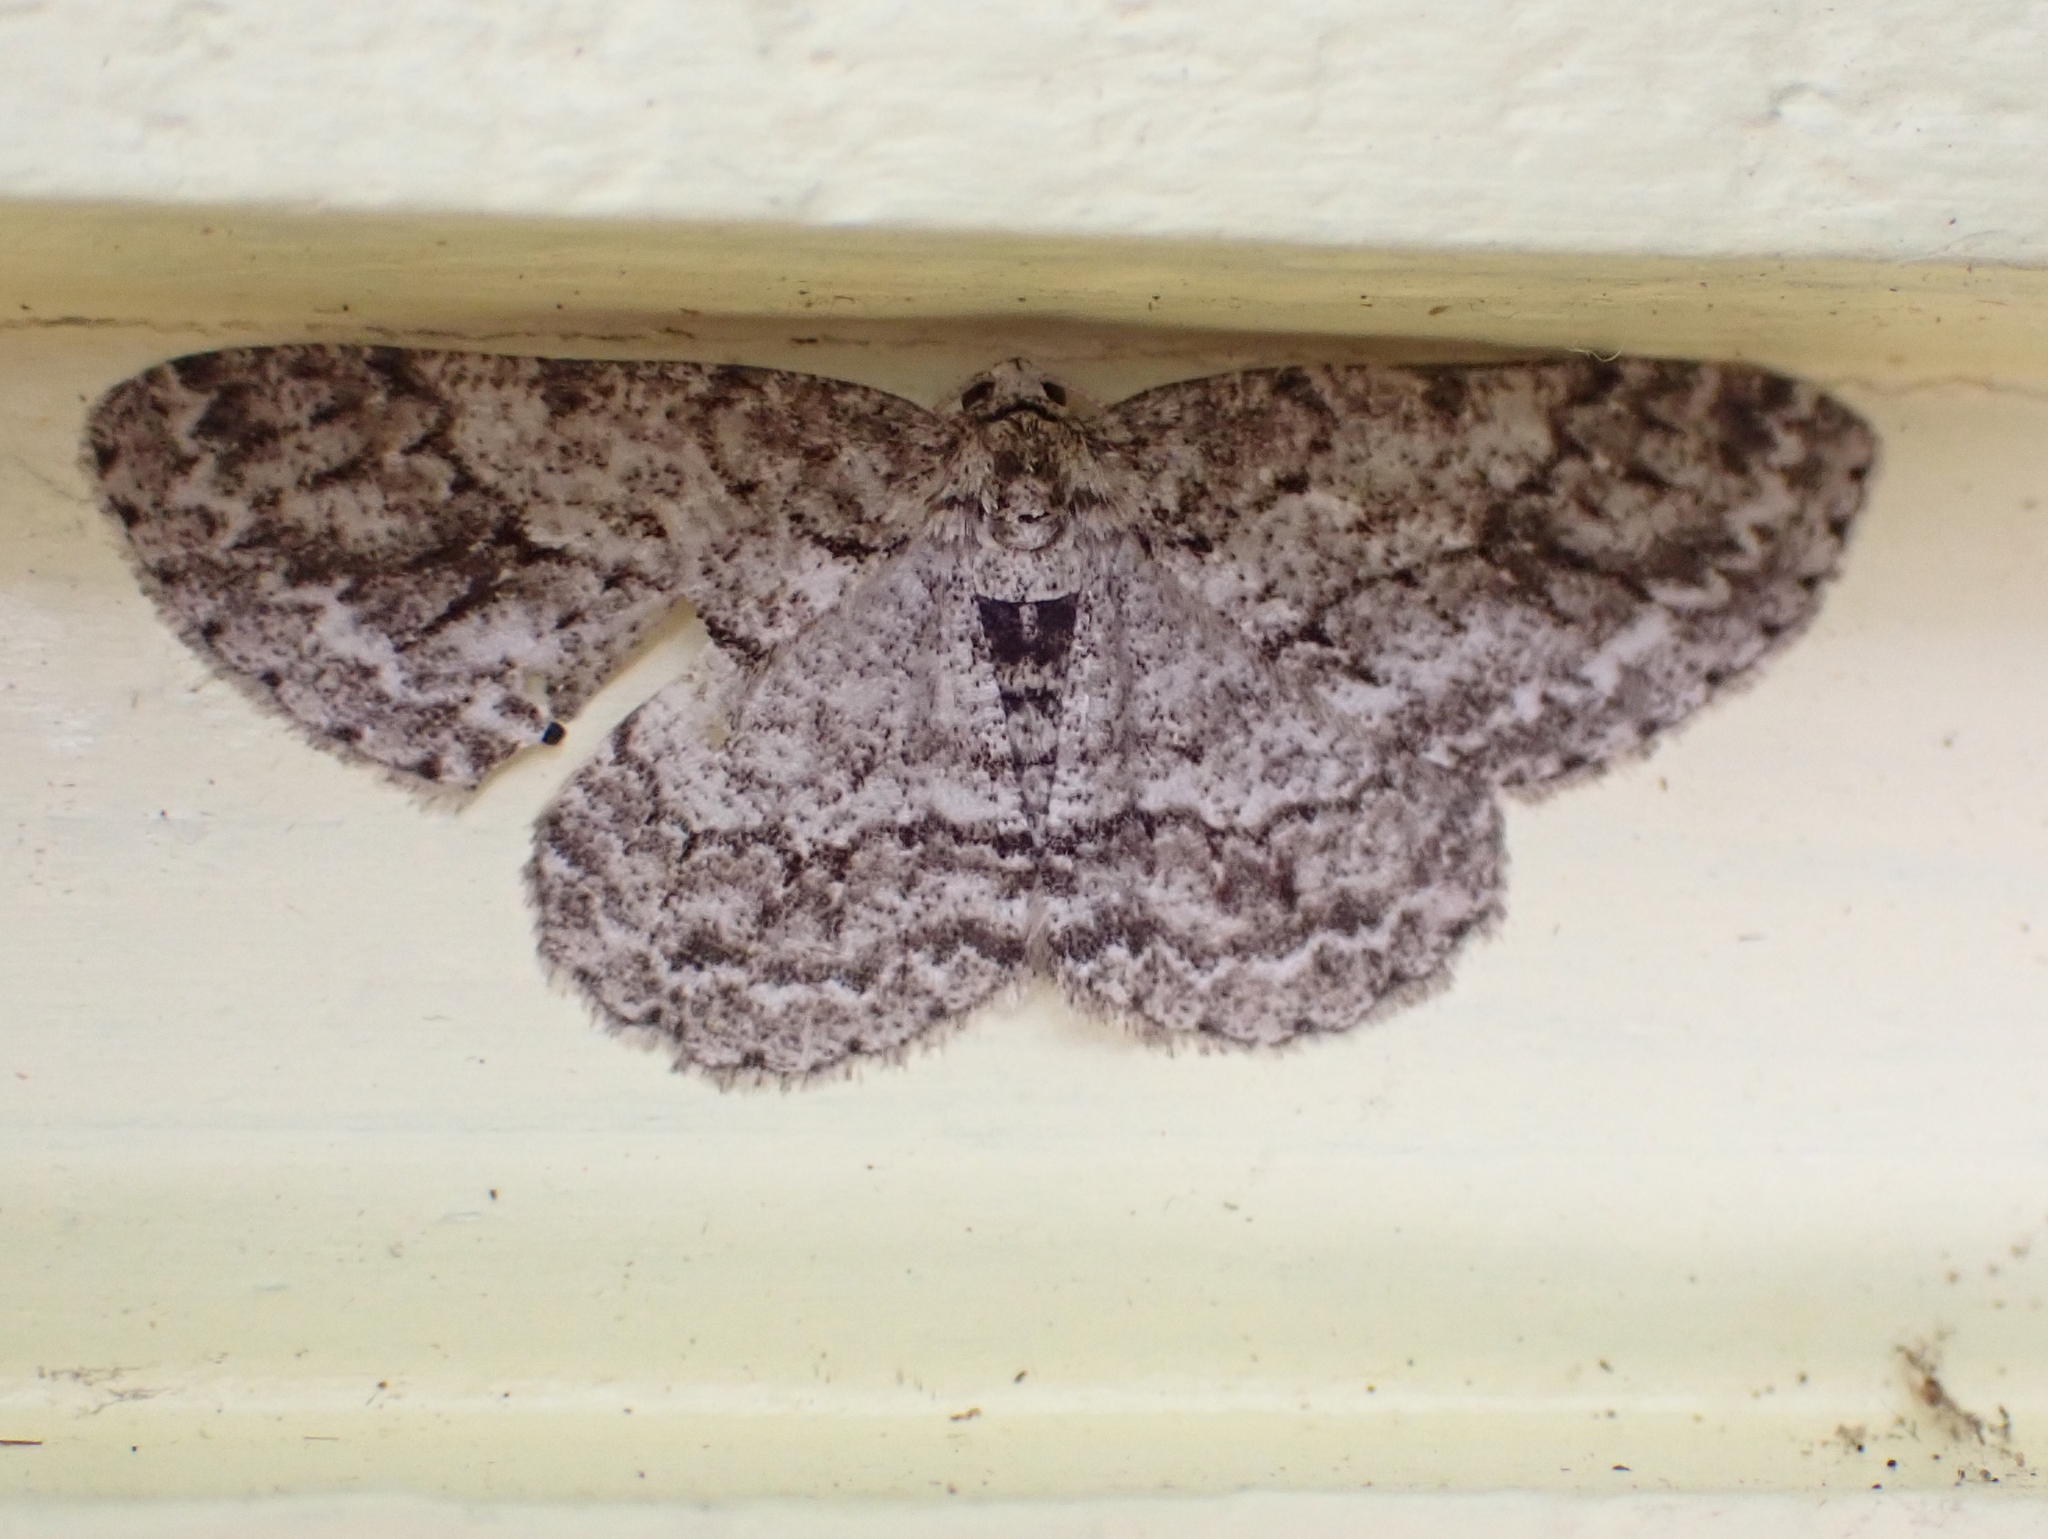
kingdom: Animalia
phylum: Arthropoda
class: Insecta
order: Lepidoptera
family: Geometridae
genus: Ectropis
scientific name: Ectropis crepuscularia
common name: Engrailed
